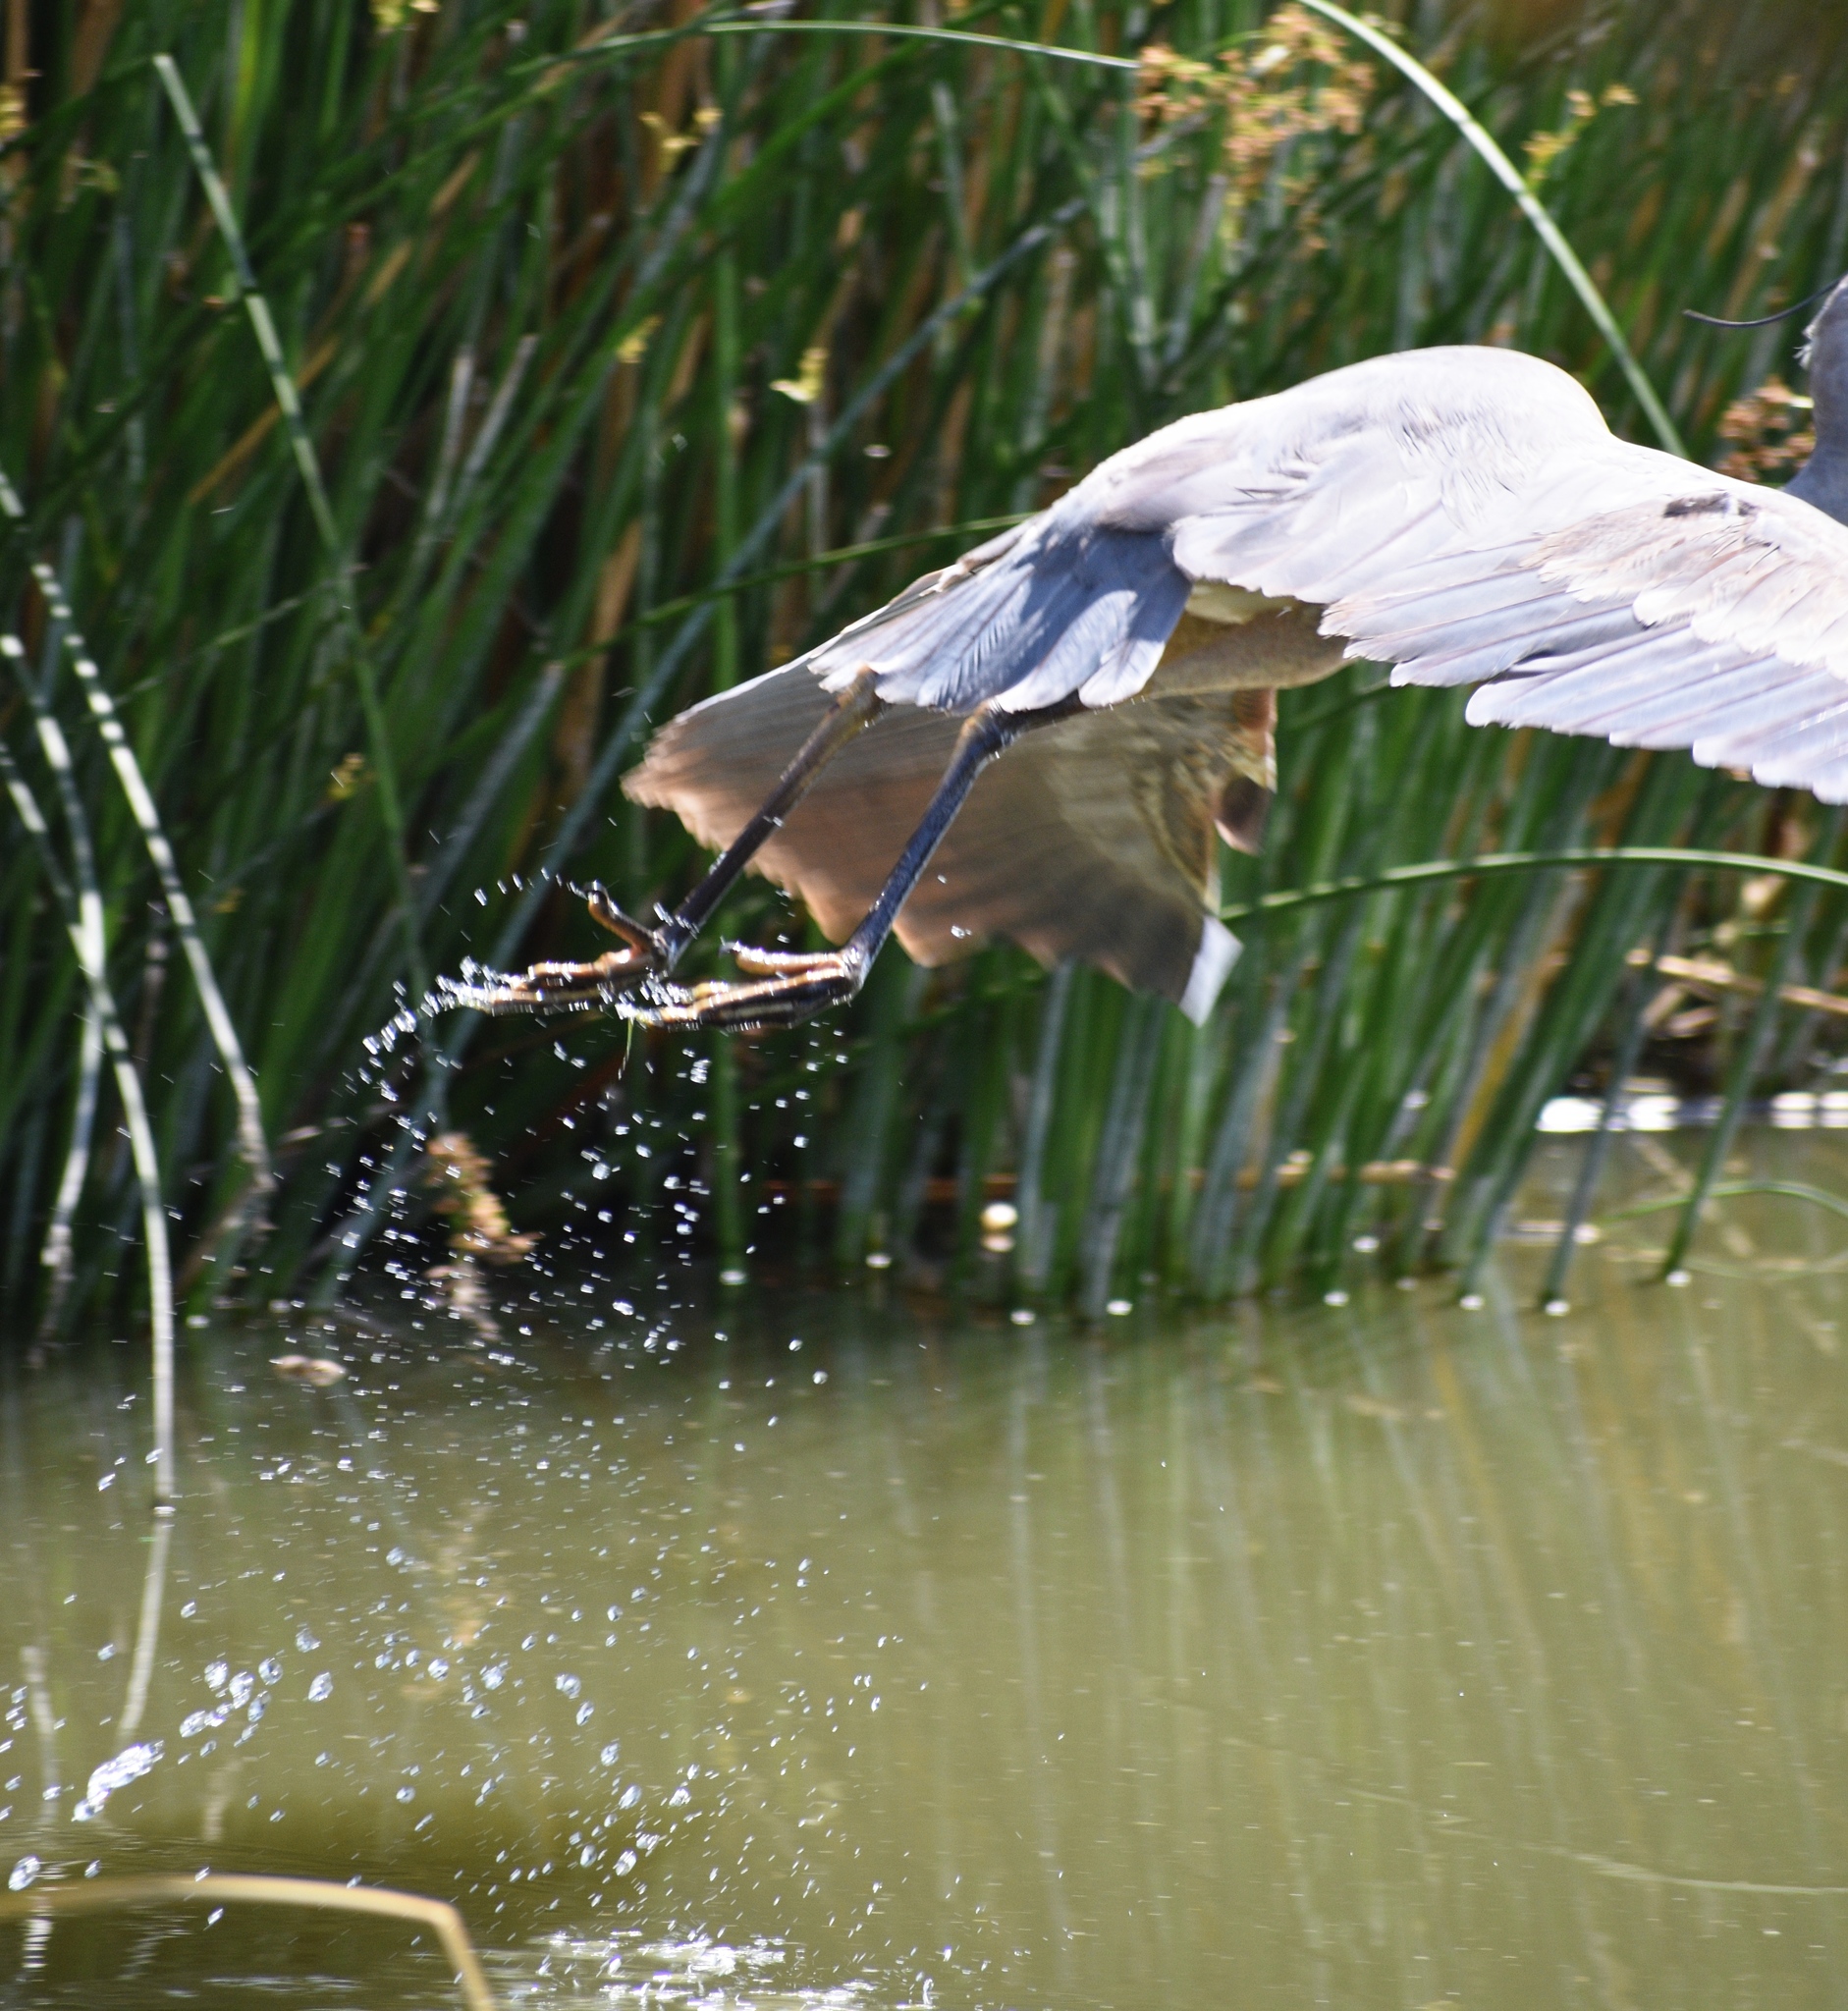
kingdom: Animalia
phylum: Chordata
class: Aves
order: Pelecaniformes
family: Ardeidae
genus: Ardea
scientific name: Ardea herodias
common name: Great blue heron
